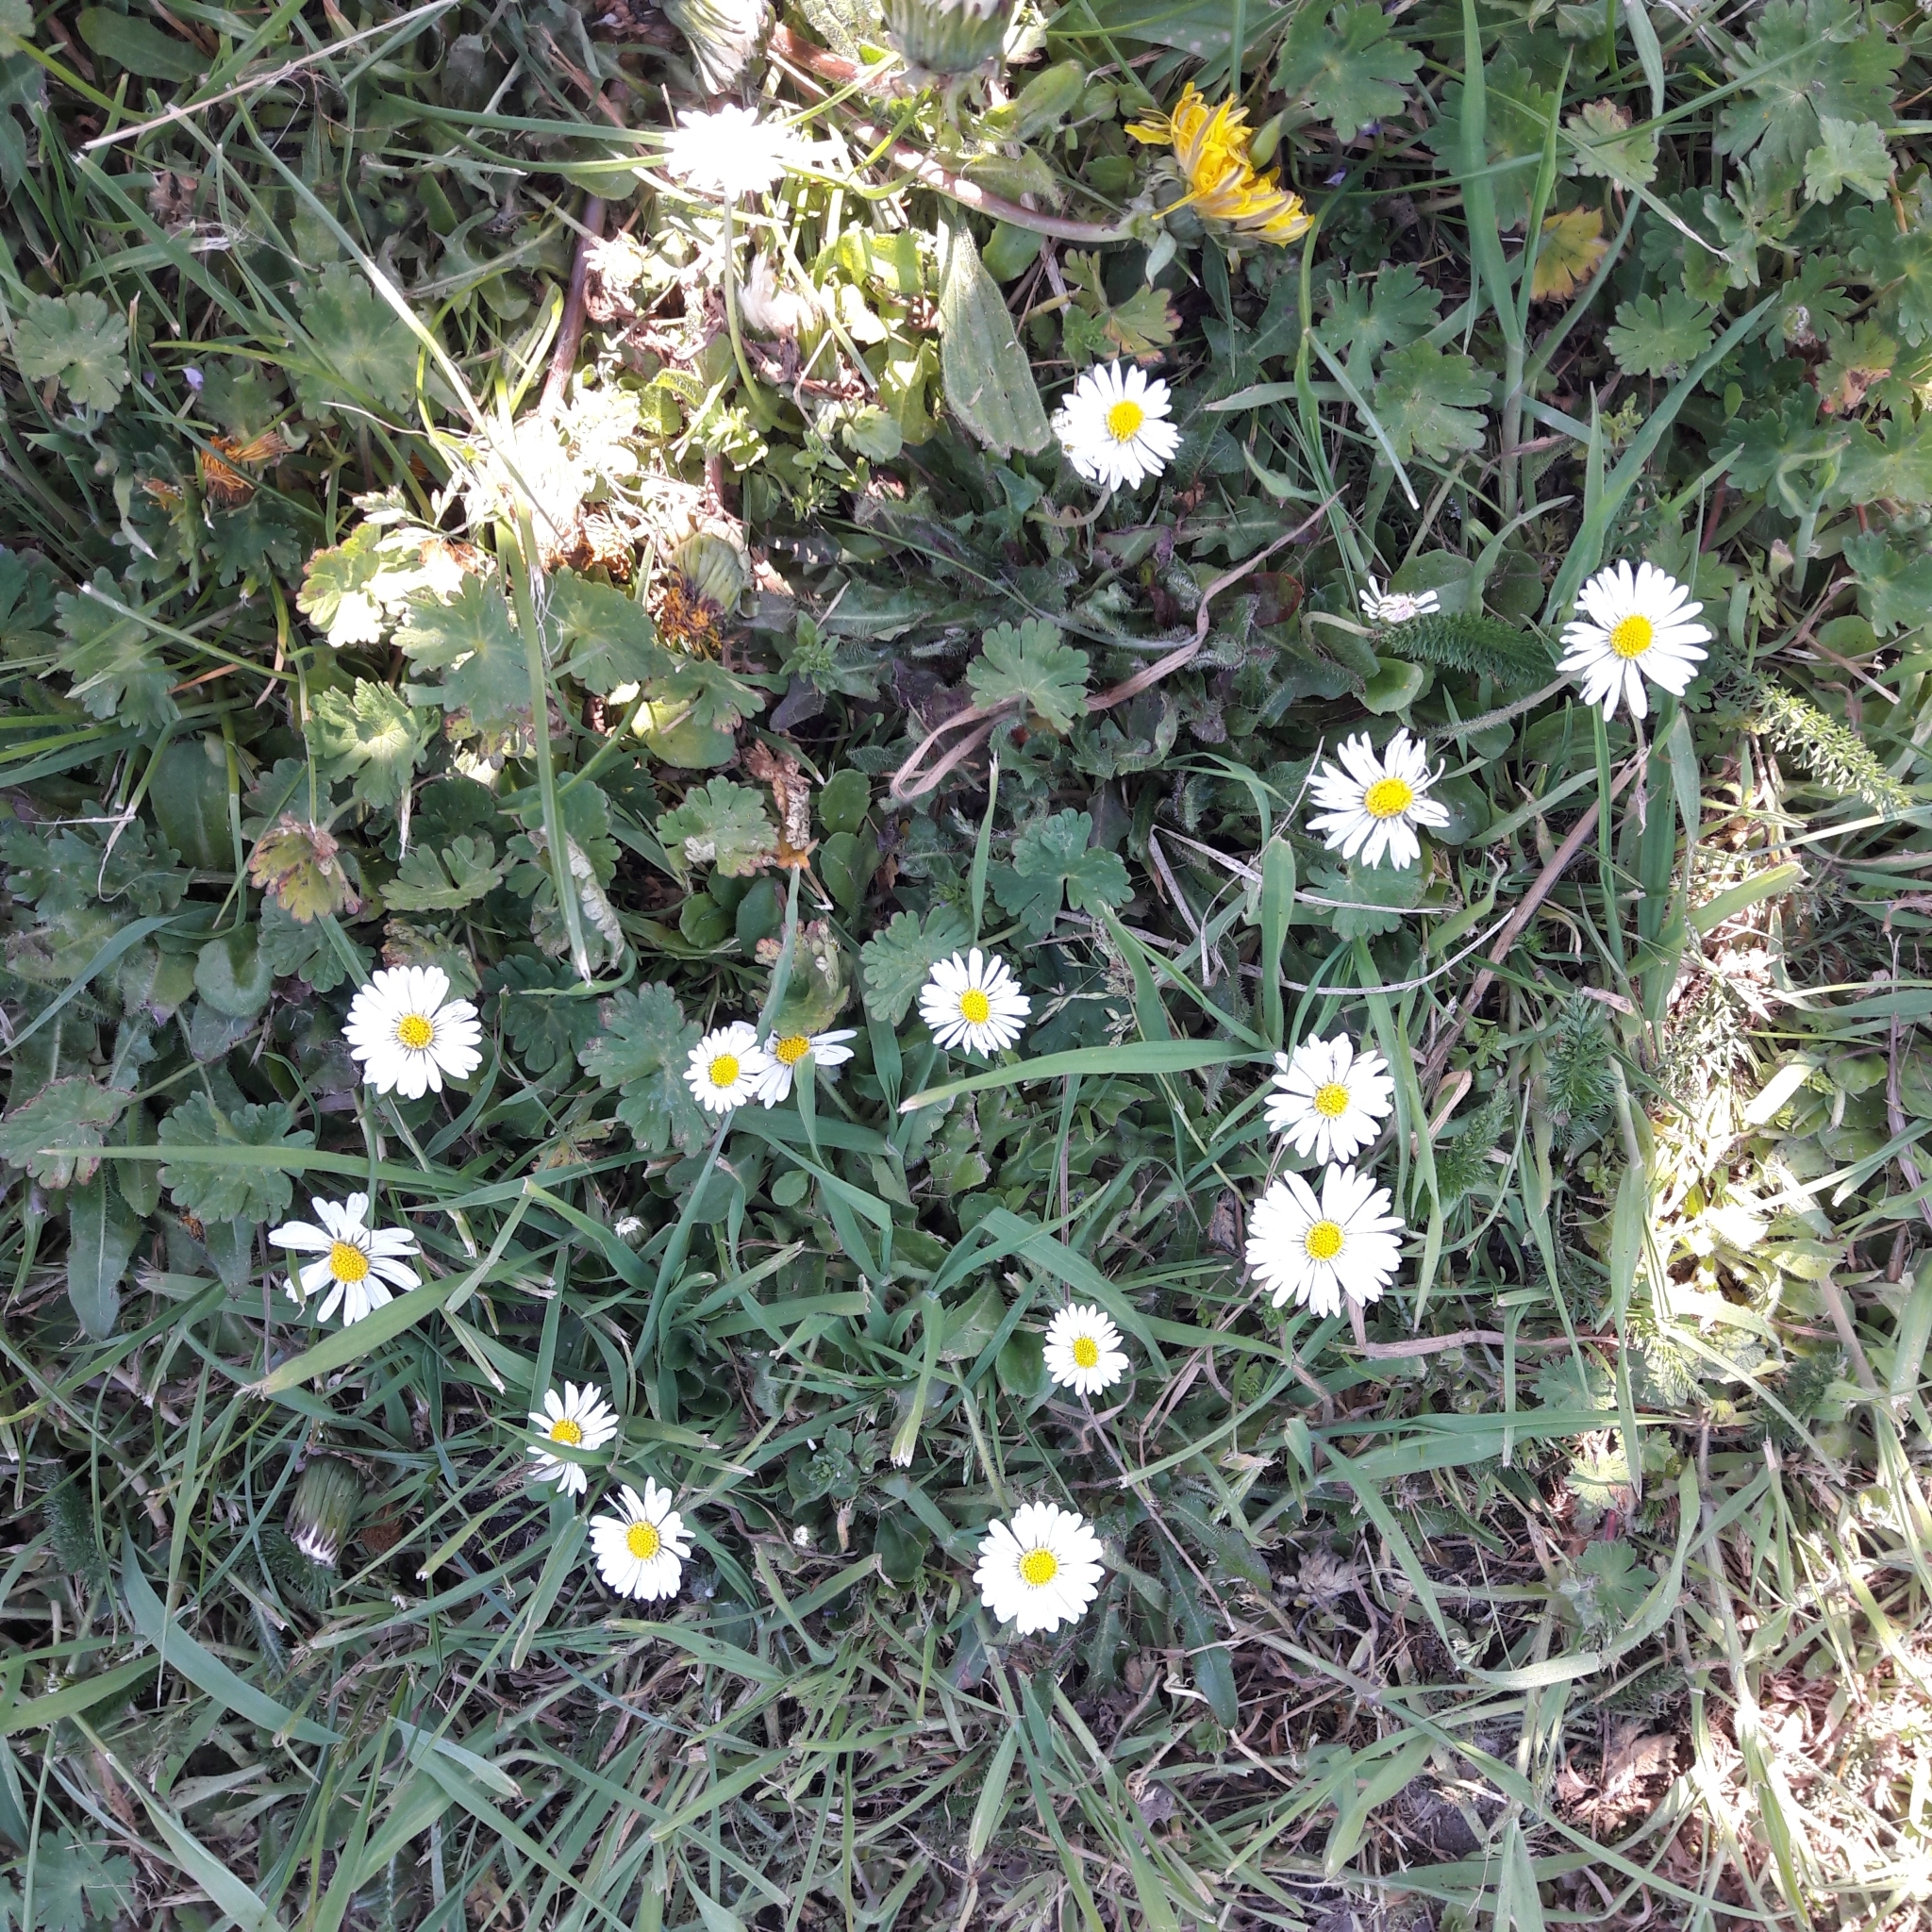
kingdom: Plantae
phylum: Tracheophyta
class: Magnoliopsida
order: Asterales
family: Asteraceae
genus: Bellis
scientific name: Bellis perennis
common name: Lawndaisy
